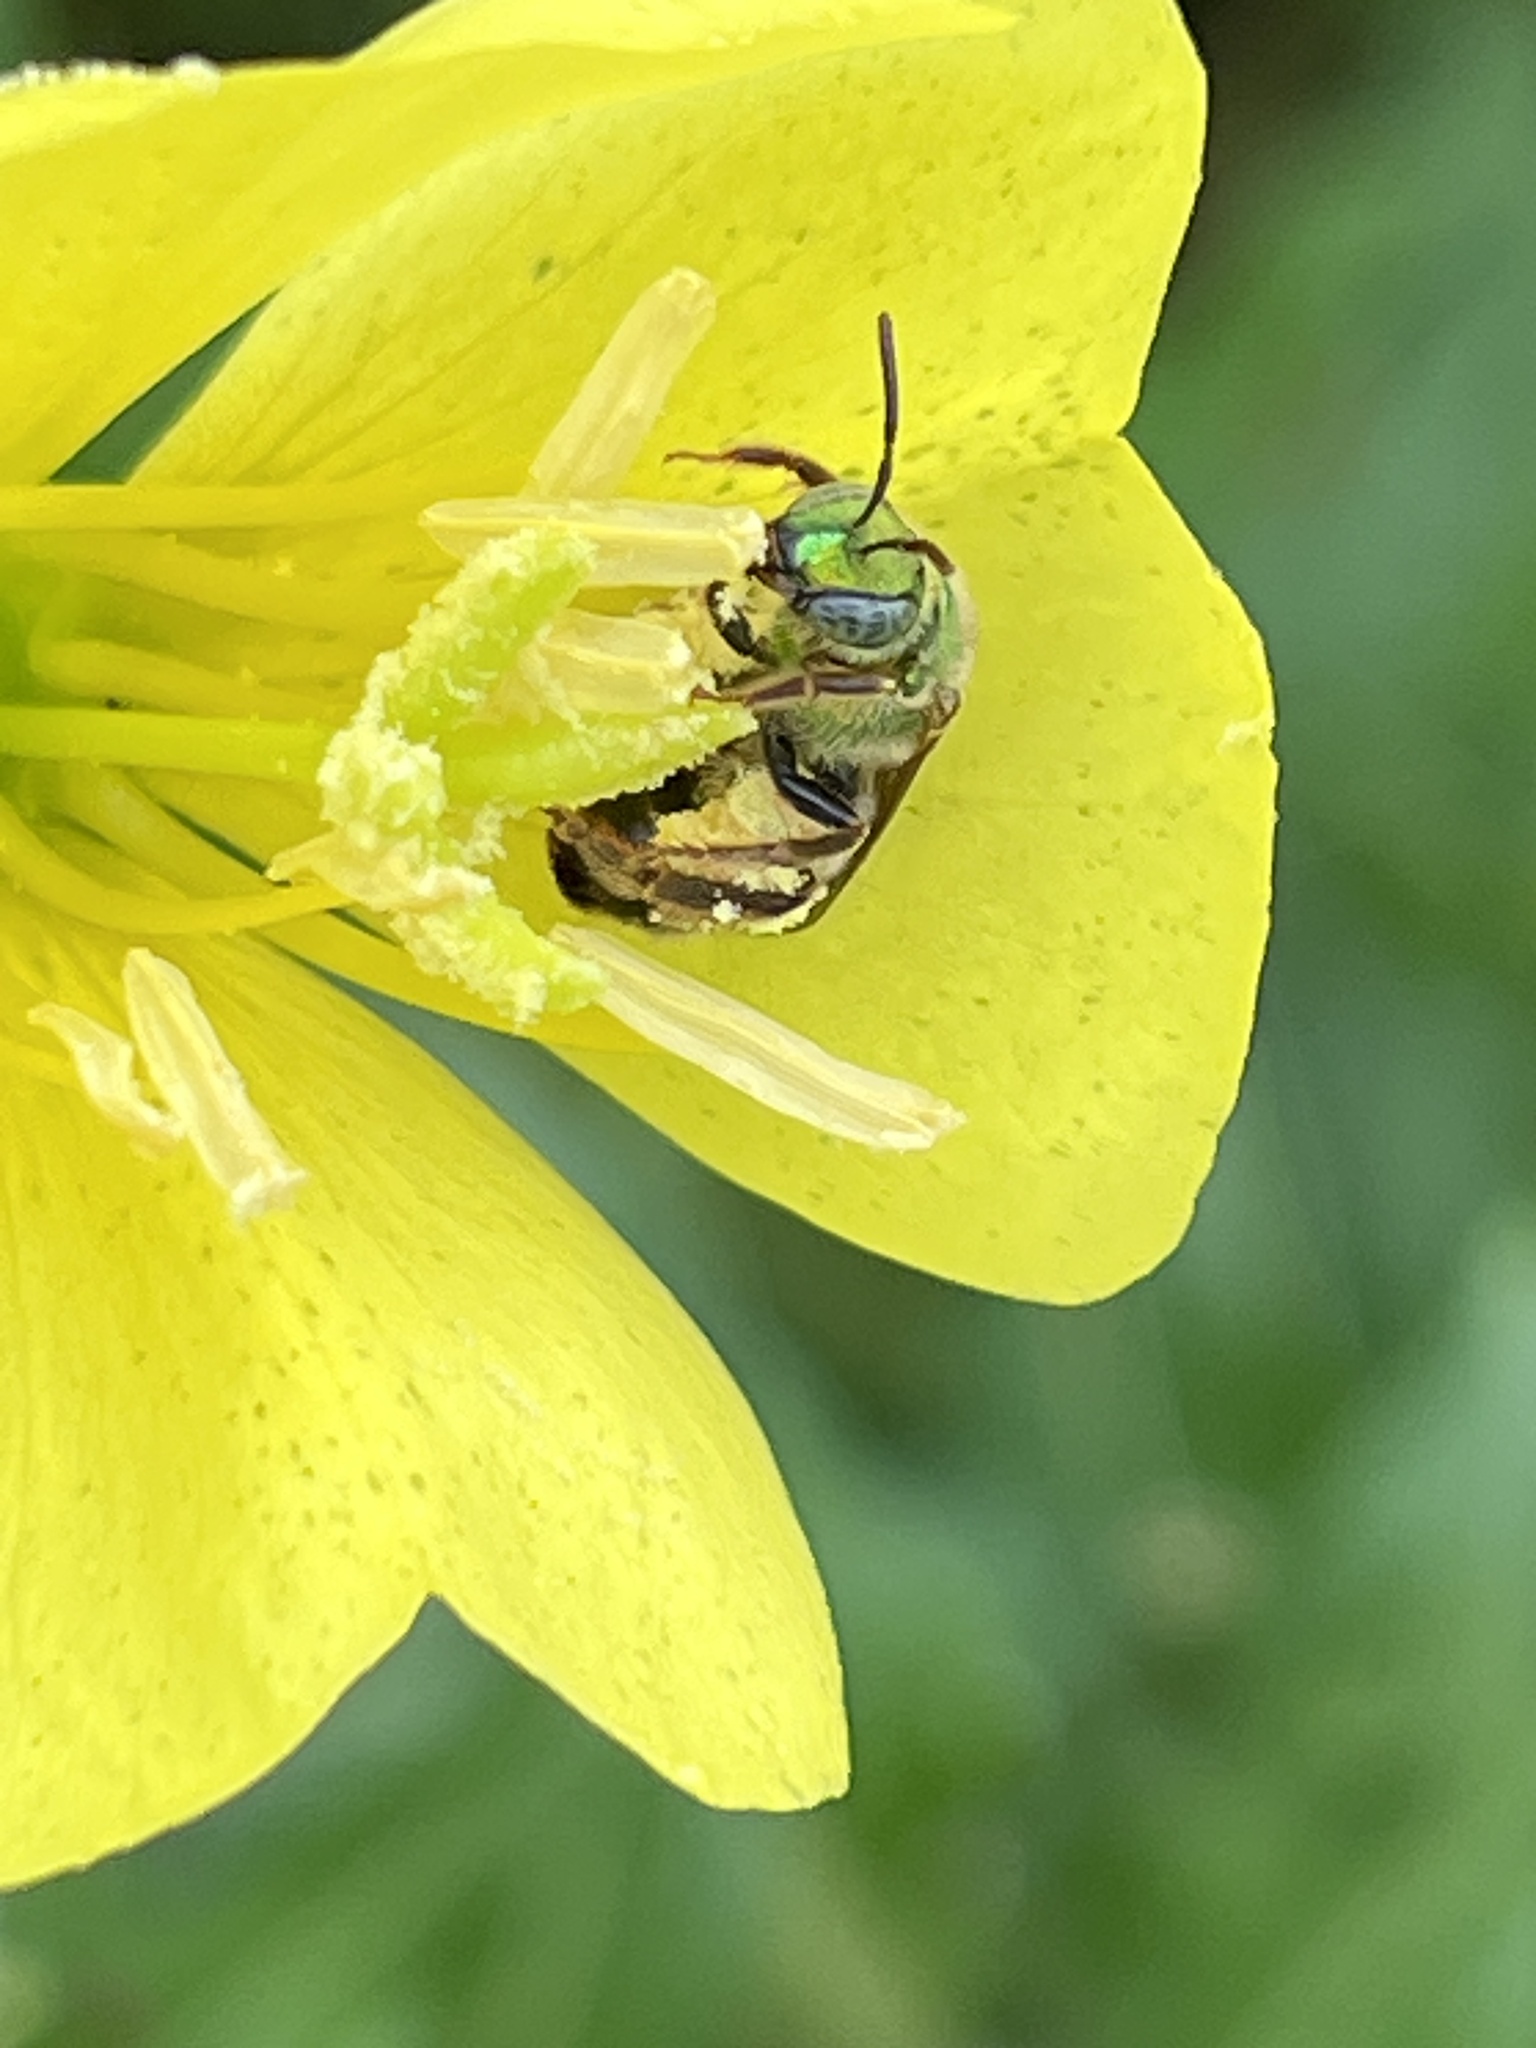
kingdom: Animalia
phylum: Arthropoda
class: Insecta
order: Hymenoptera
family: Halictidae
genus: Agapostemon
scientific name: Agapostemon virescens
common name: Bicolored striped sweat bee
